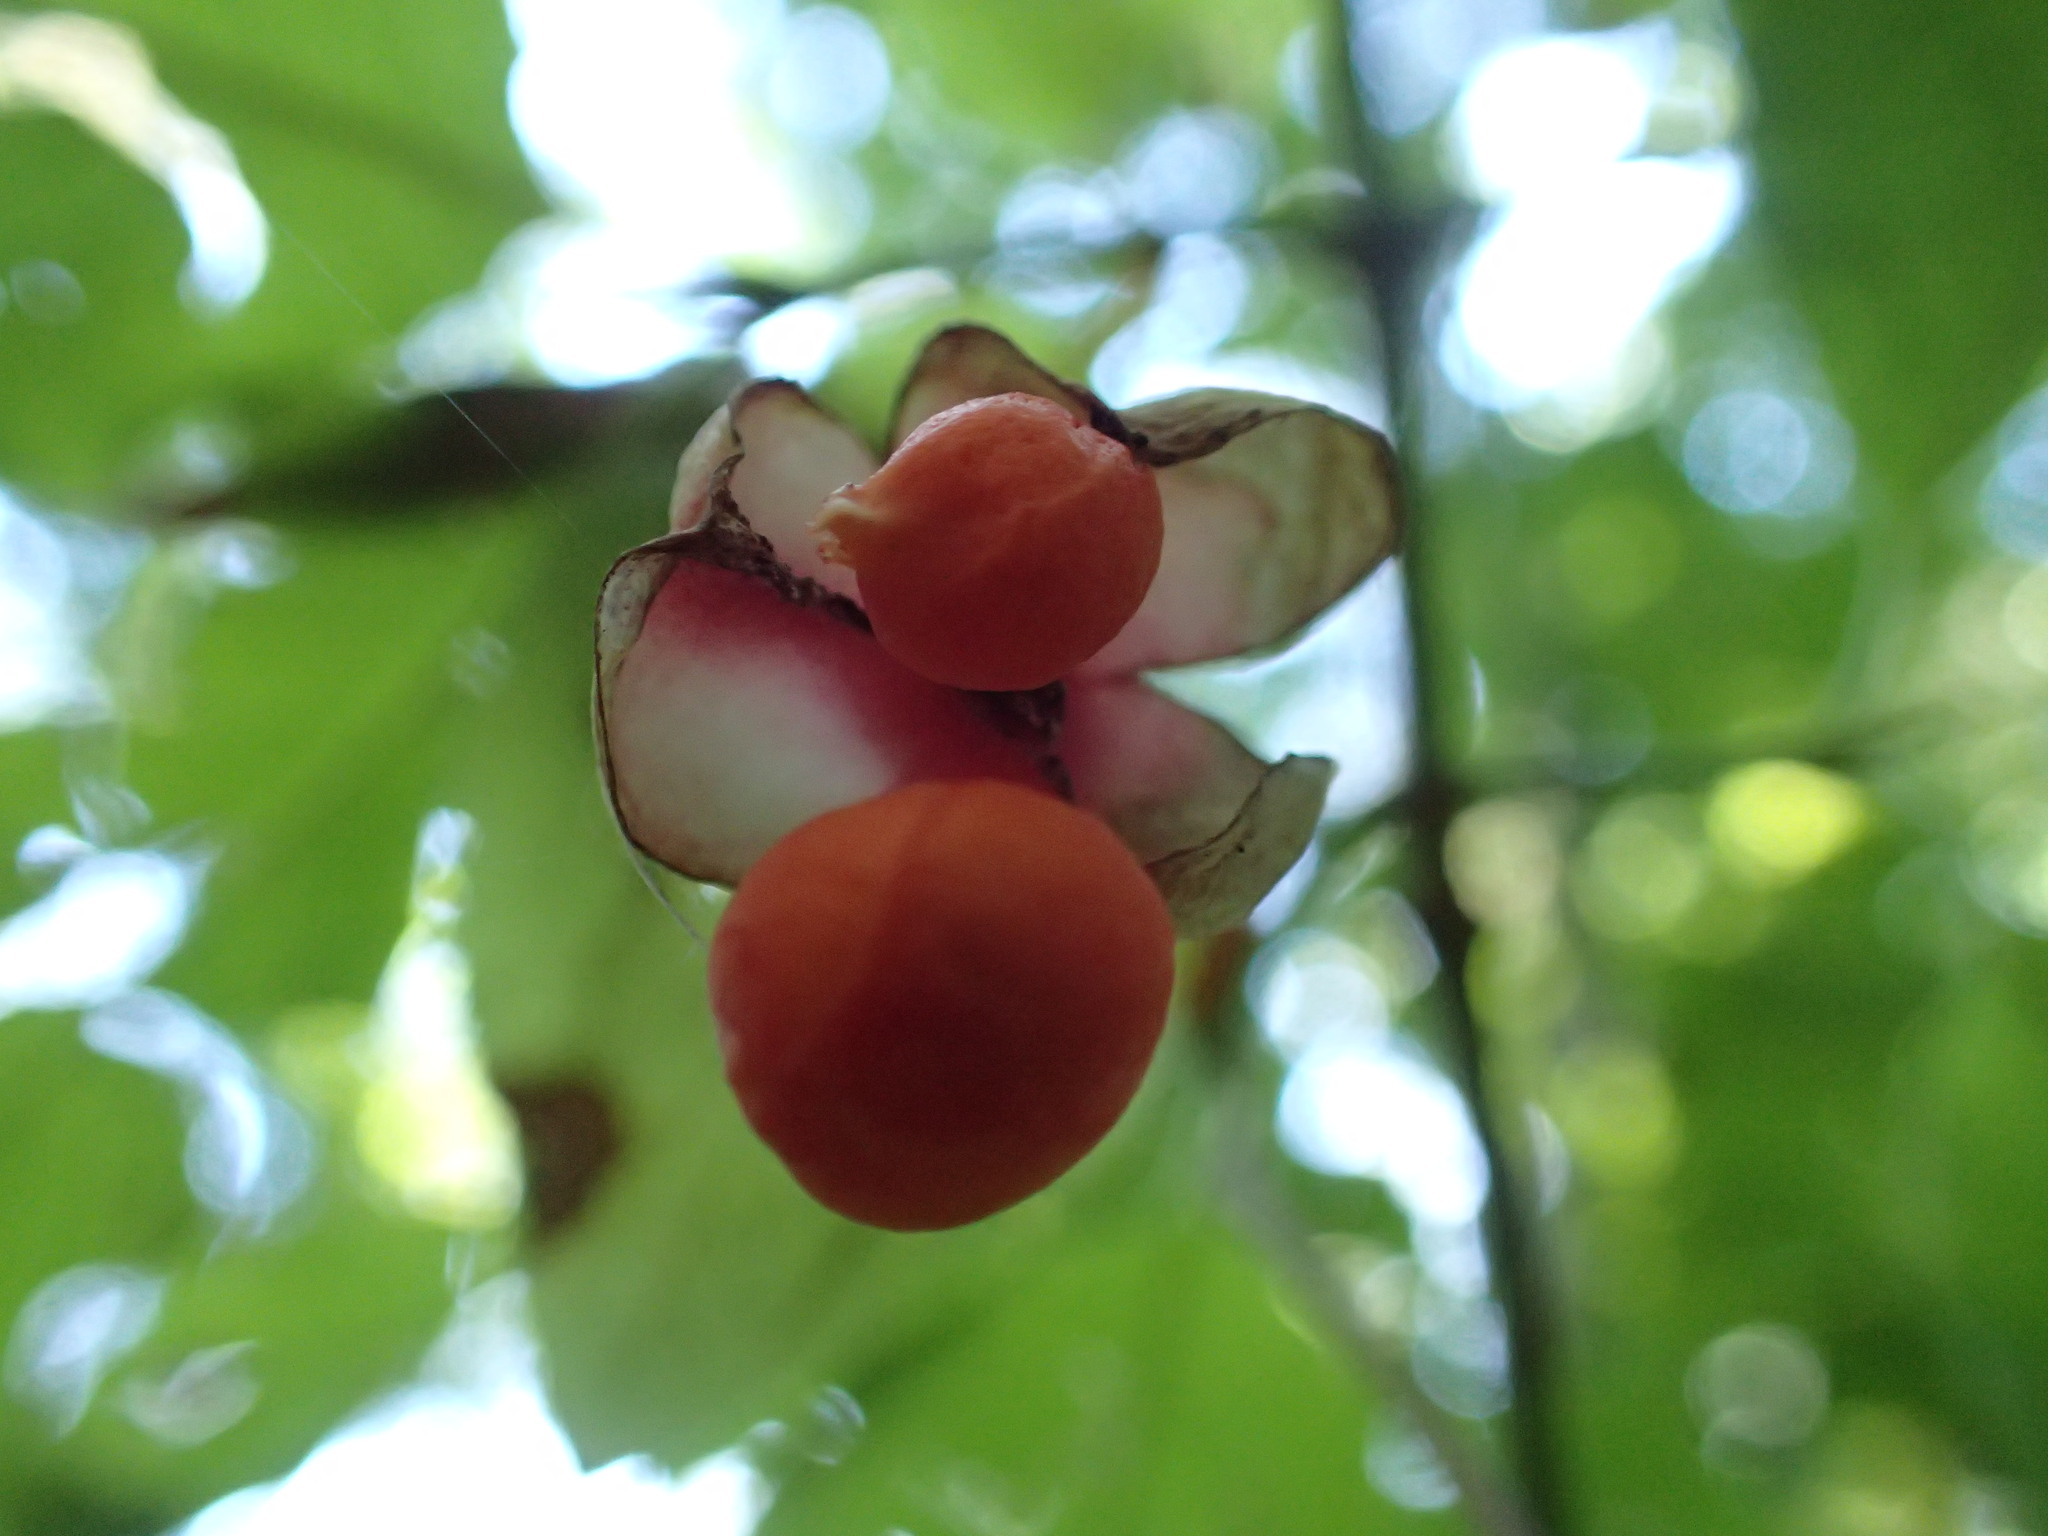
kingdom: Plantae
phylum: Tracheophyta
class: Magnoliopsida
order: Celastrales
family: Celastraceae
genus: Euonymus
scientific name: Euonymus occidentalis
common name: Western burningbush
